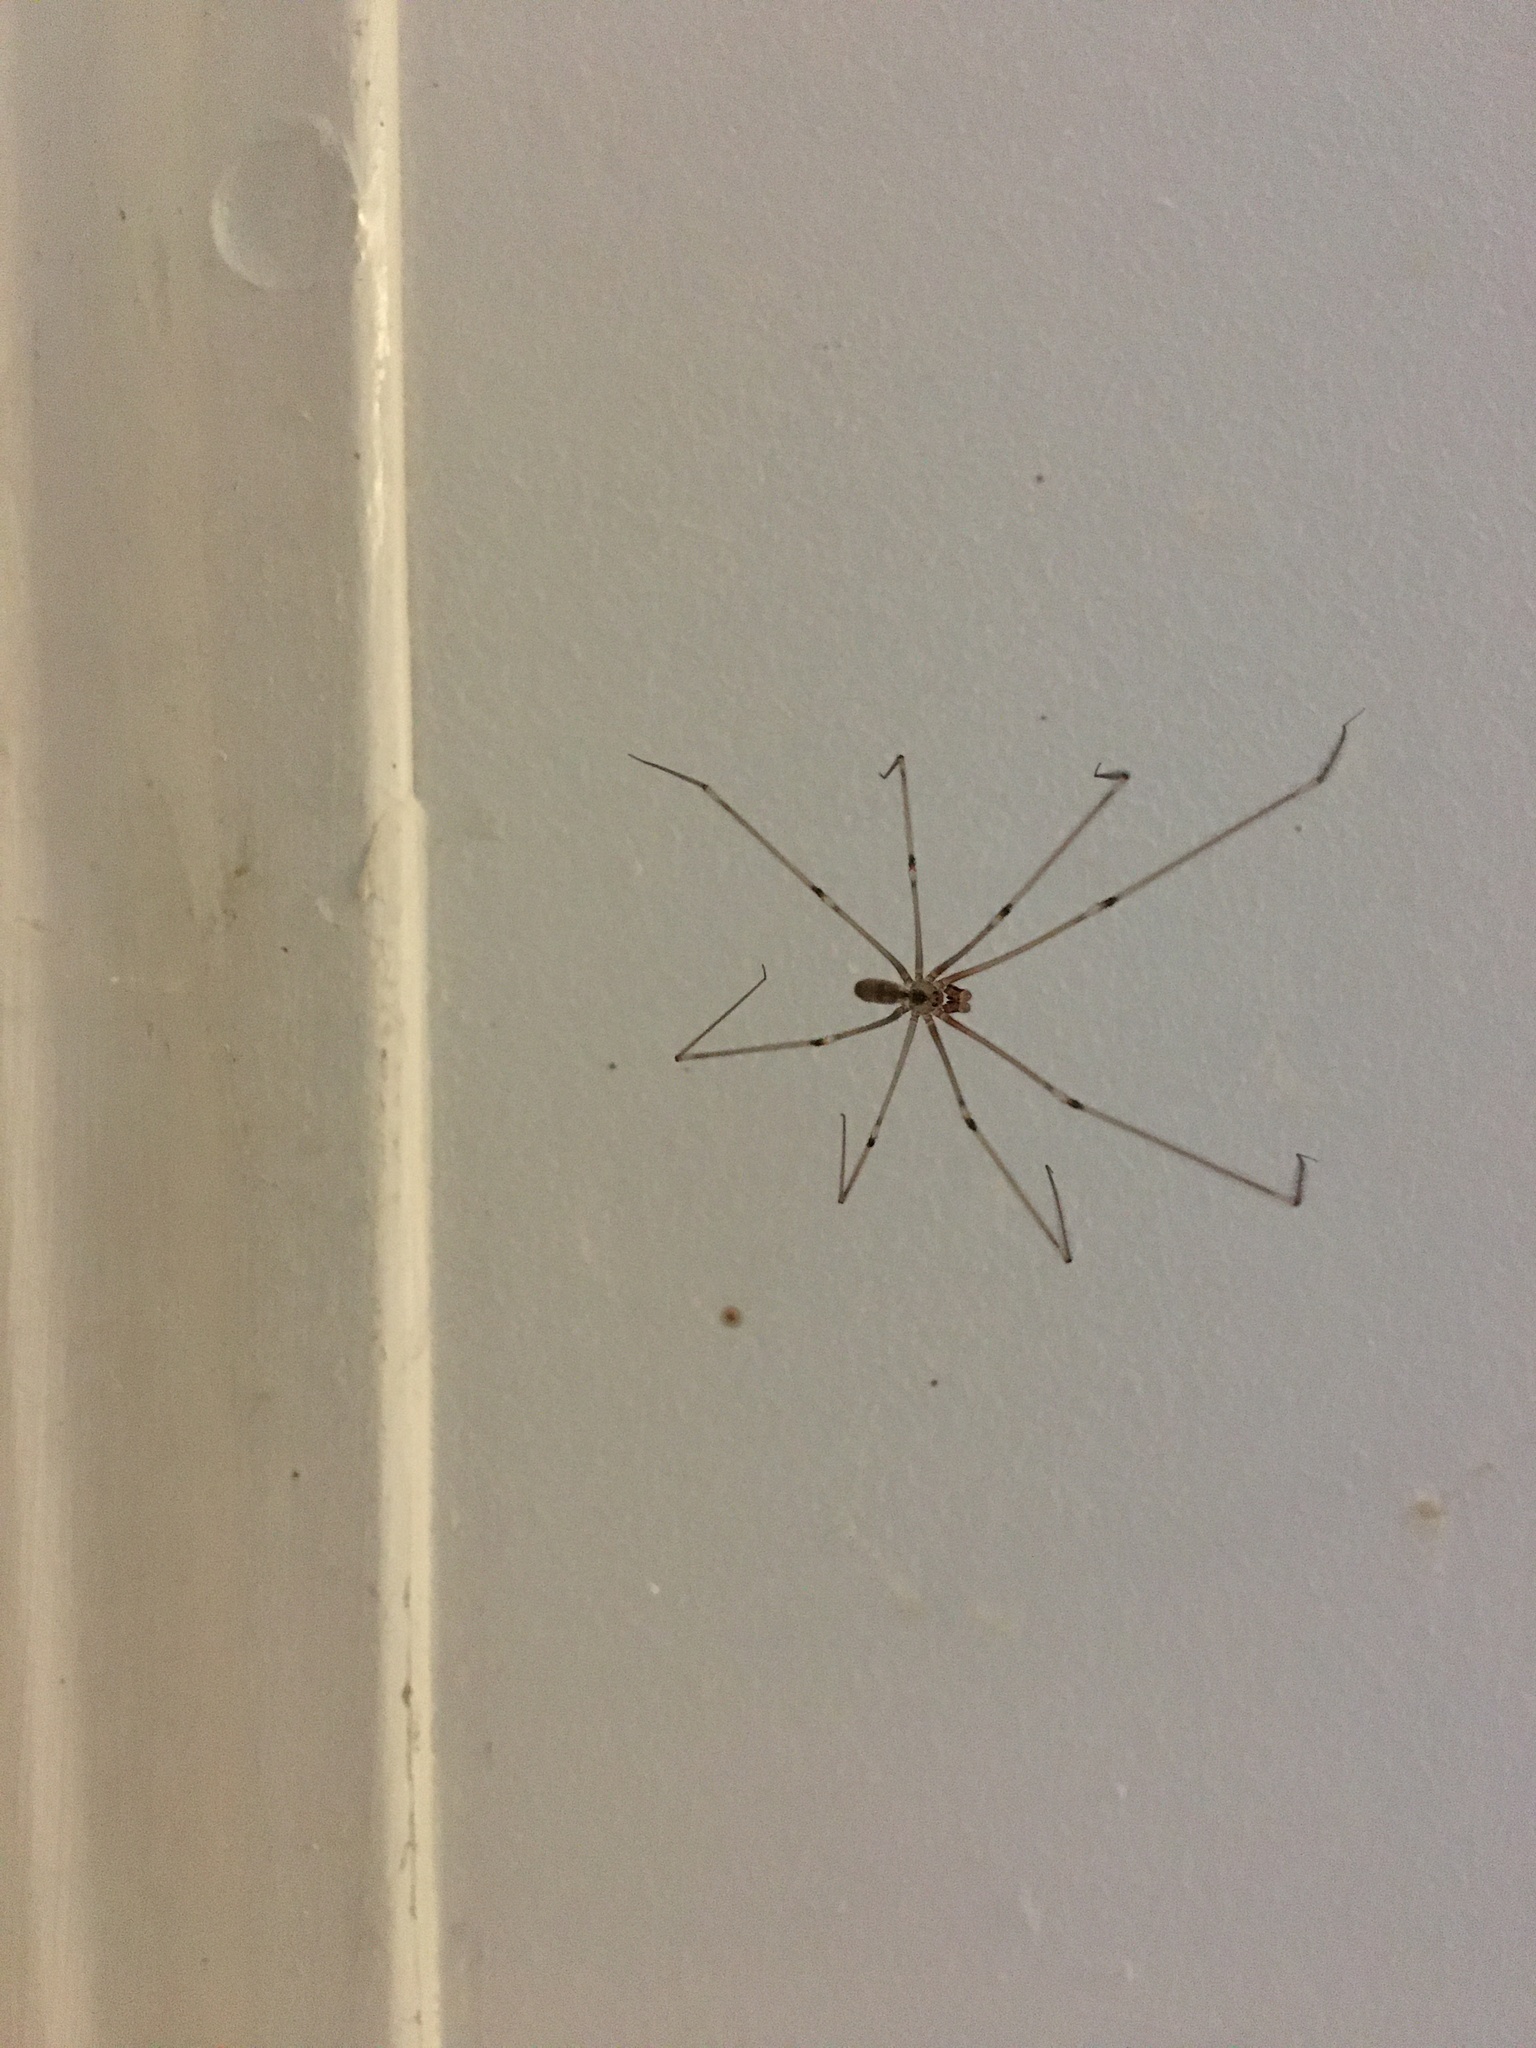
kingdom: Animalia
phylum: Arthropoda
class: Arachnida
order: Araneae
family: Pholcidae
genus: Pholcus
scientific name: Pholcus phalangioides
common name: Longbodied cellar spider
